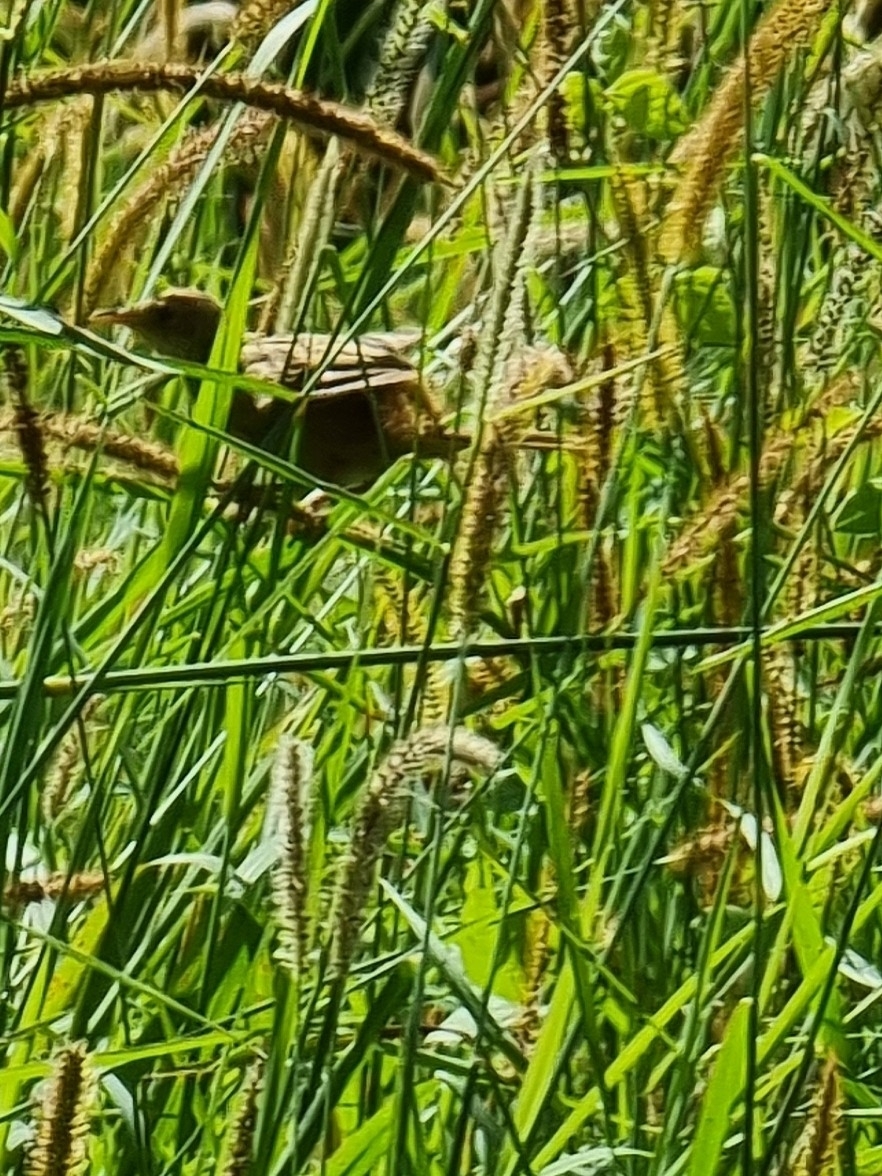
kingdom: Animalia
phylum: Chordata
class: Aves
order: Passeriformes
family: Acrocephalidae
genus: Acrocephalus
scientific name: Acrocephalus australis
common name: Australian reed warbler
